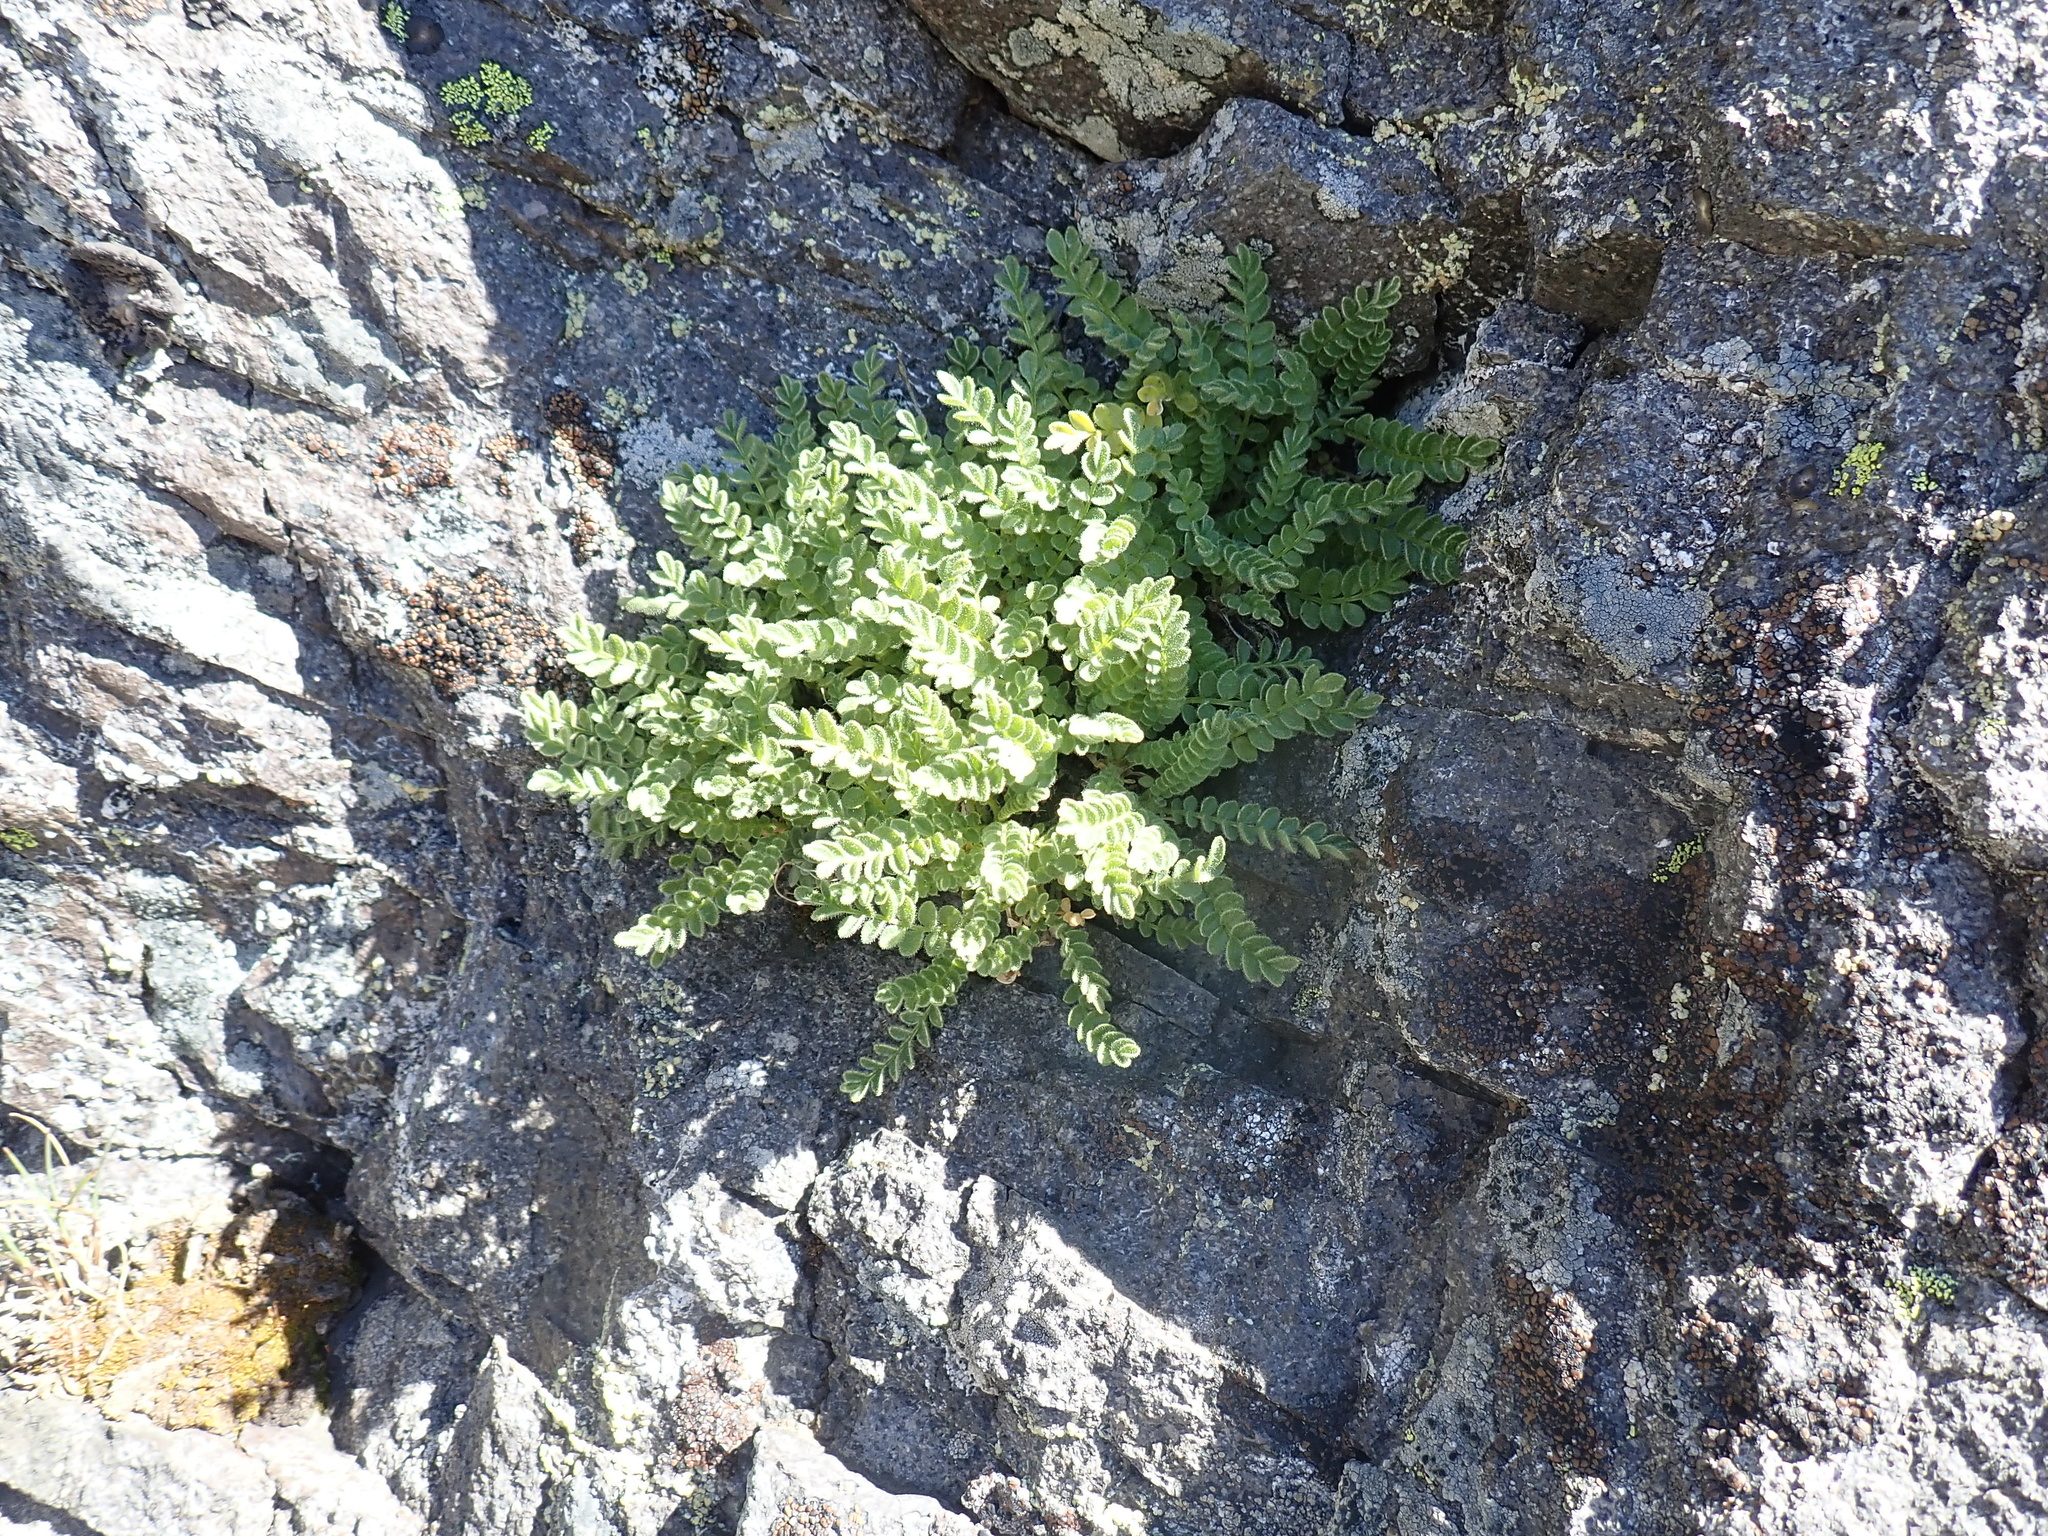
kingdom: Plantae
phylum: Tracheophyta
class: Magnoliopsida
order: Ericales
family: Polemoniaceae
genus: Polemonium
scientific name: Polemonium elegans
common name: Elegant jacob's-ladder
